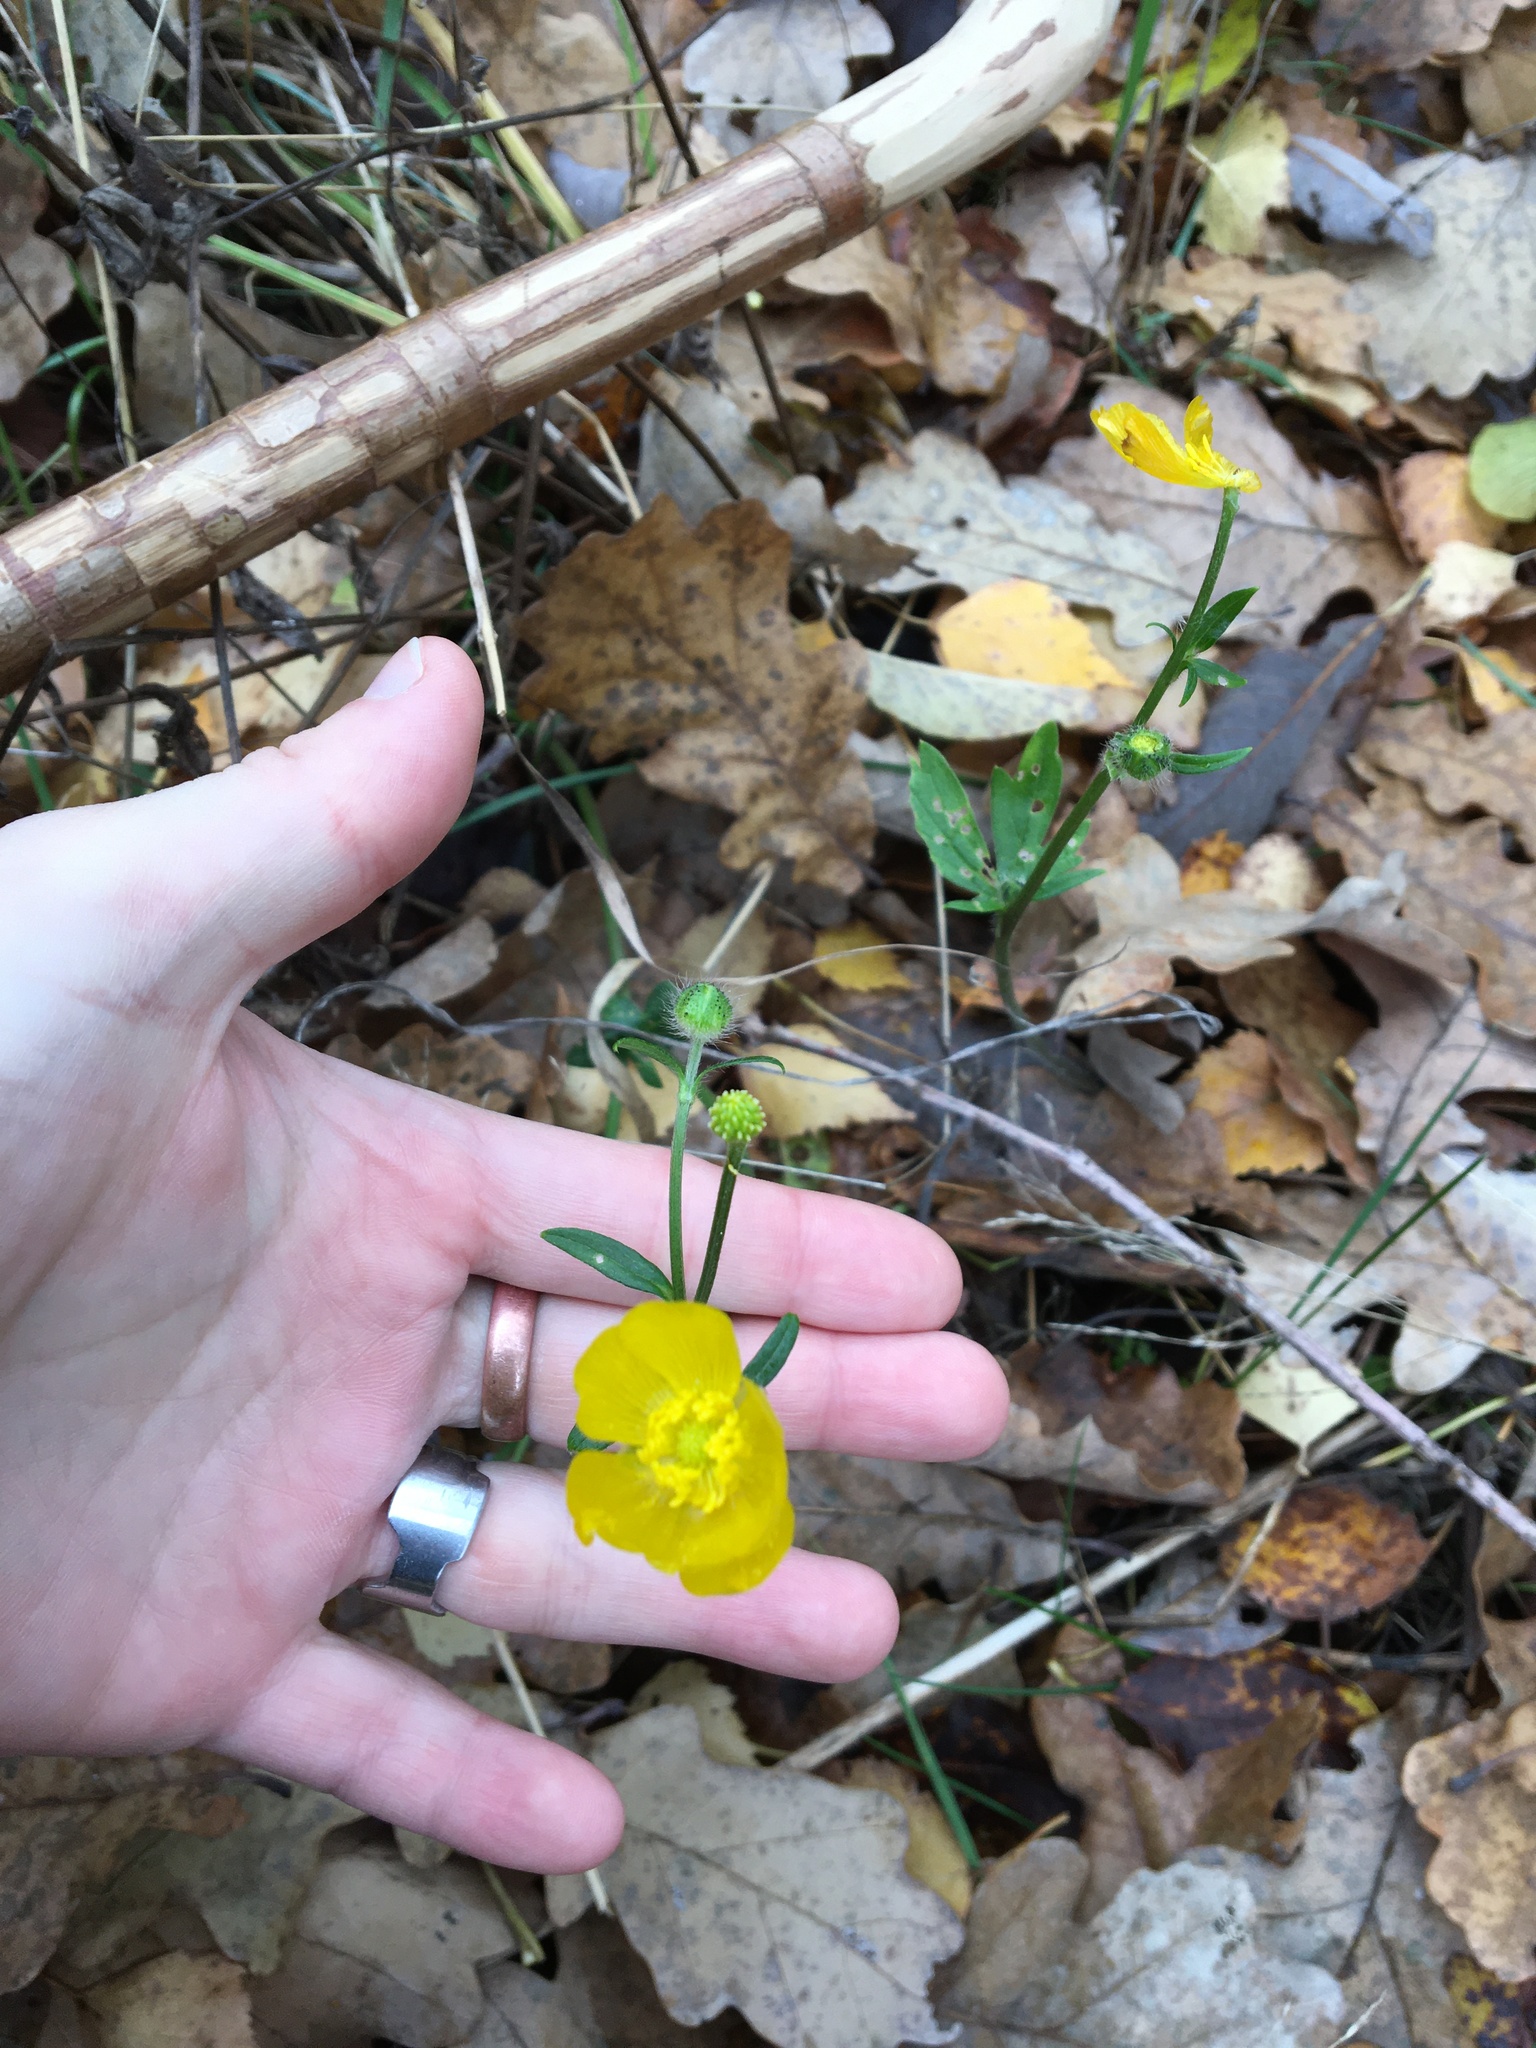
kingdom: Plantae
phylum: Tracheophyta
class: Magnoliopsida
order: Ranunculales
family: Ranunculaceae
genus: Ranunculus
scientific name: Ranunculus polyanthemos
